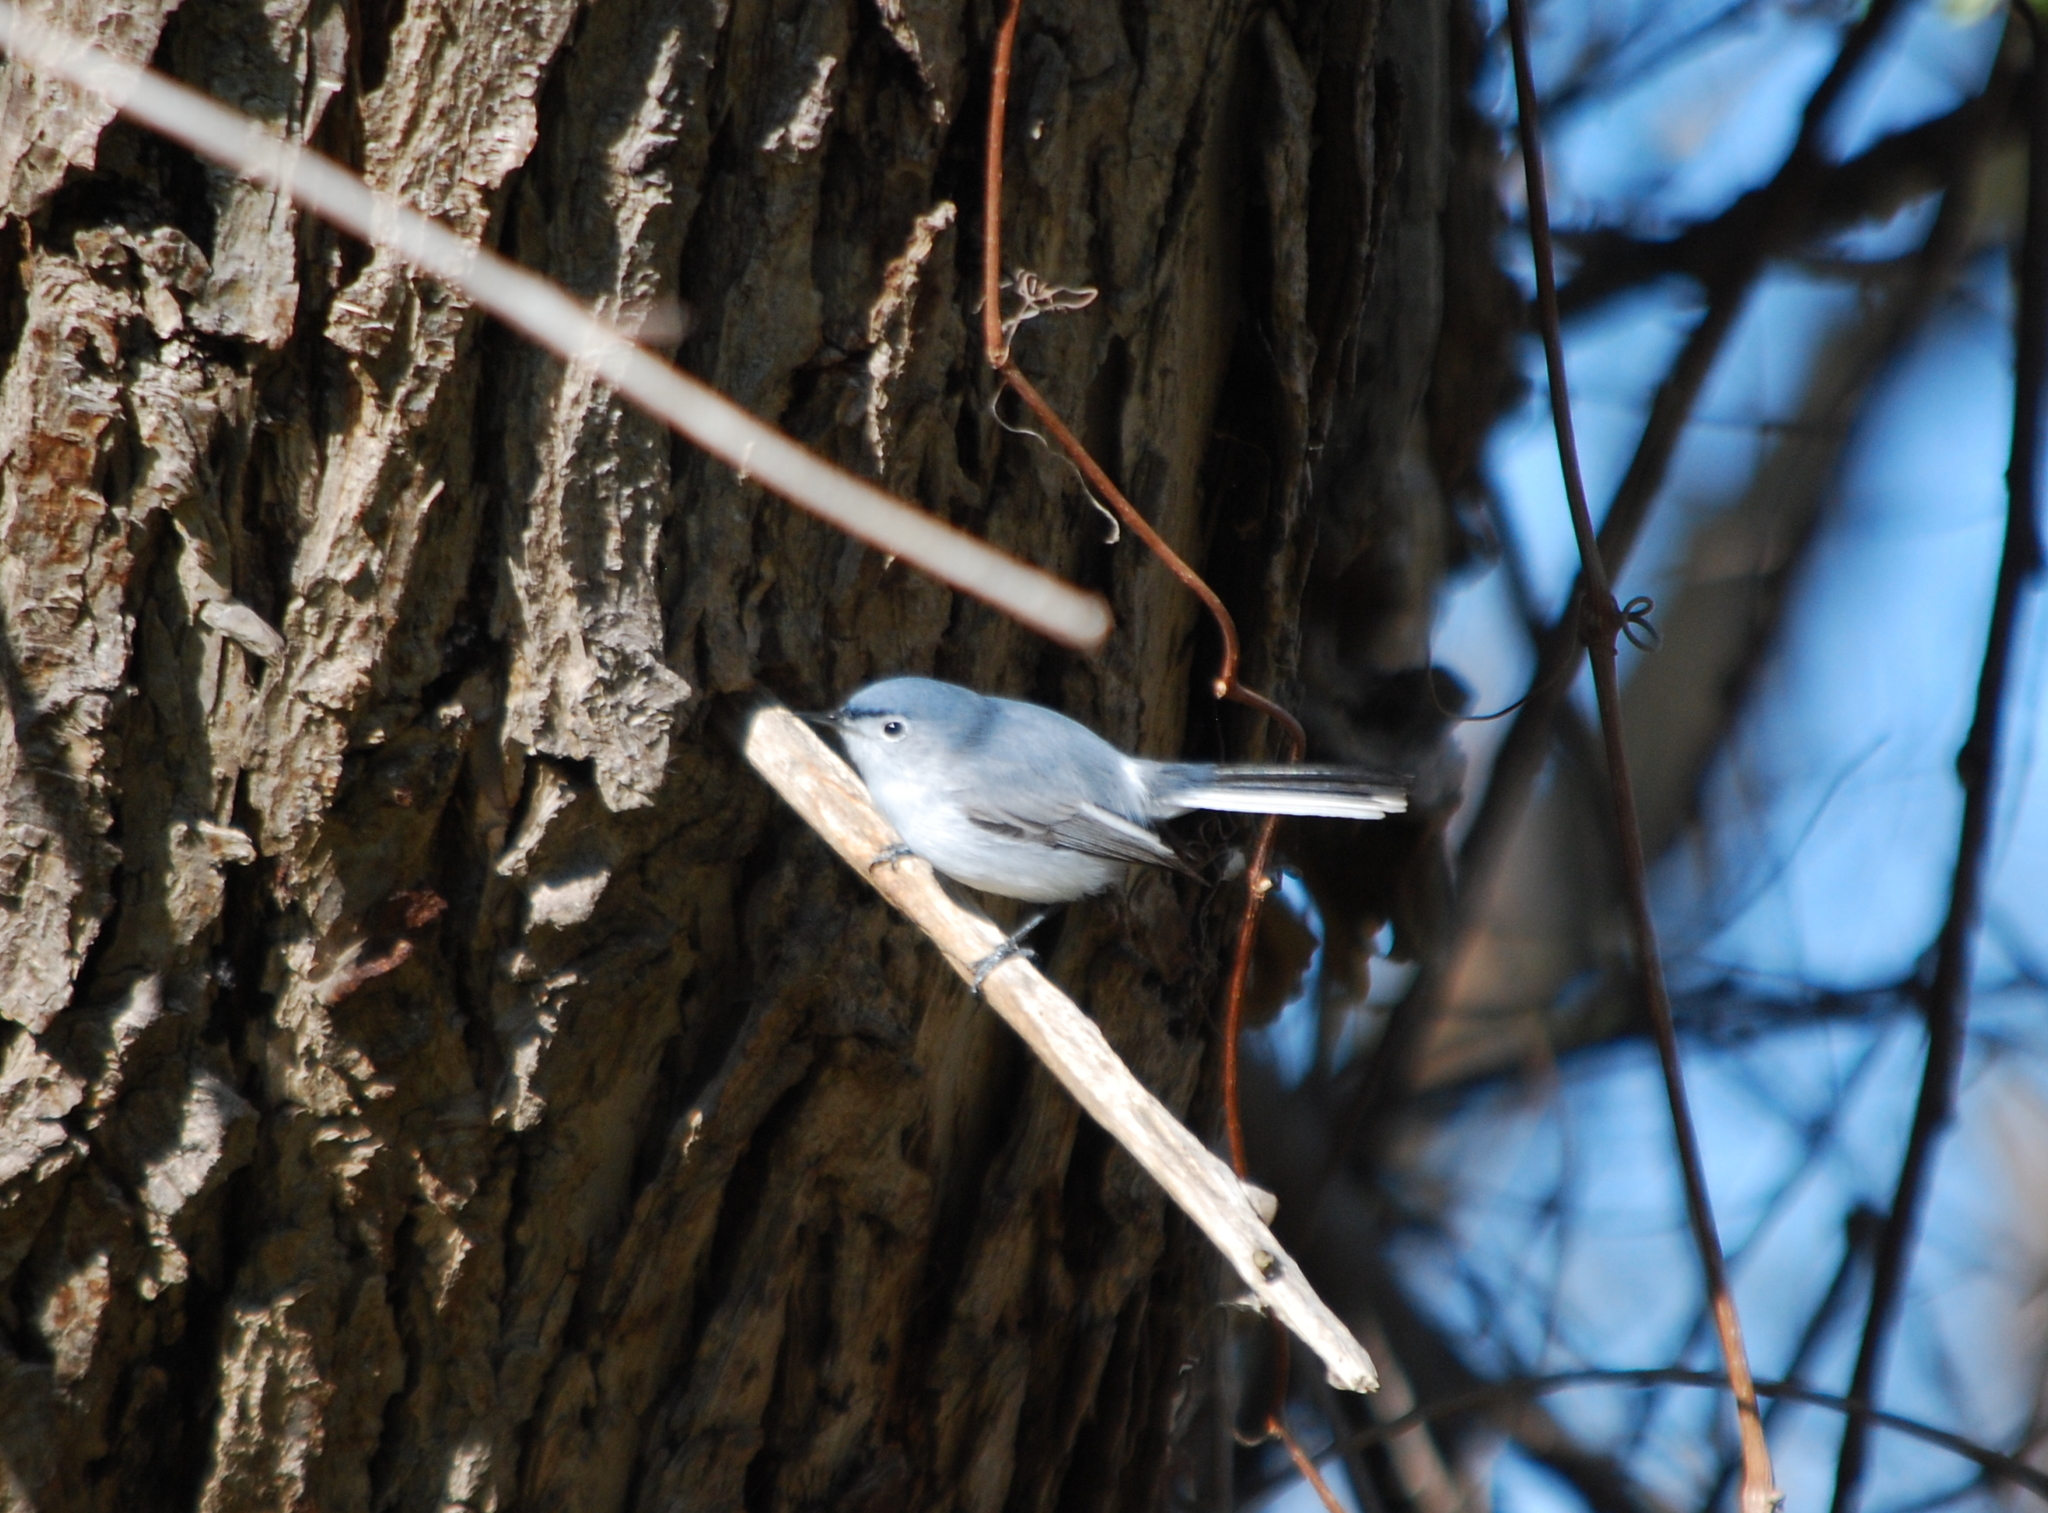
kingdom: Animalia
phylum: Chordata
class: Aves
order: Passeriformes
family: Polioptilidae
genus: Polioptila
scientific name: Polioptila caerulea
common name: Blue-gray gnatcatcher
